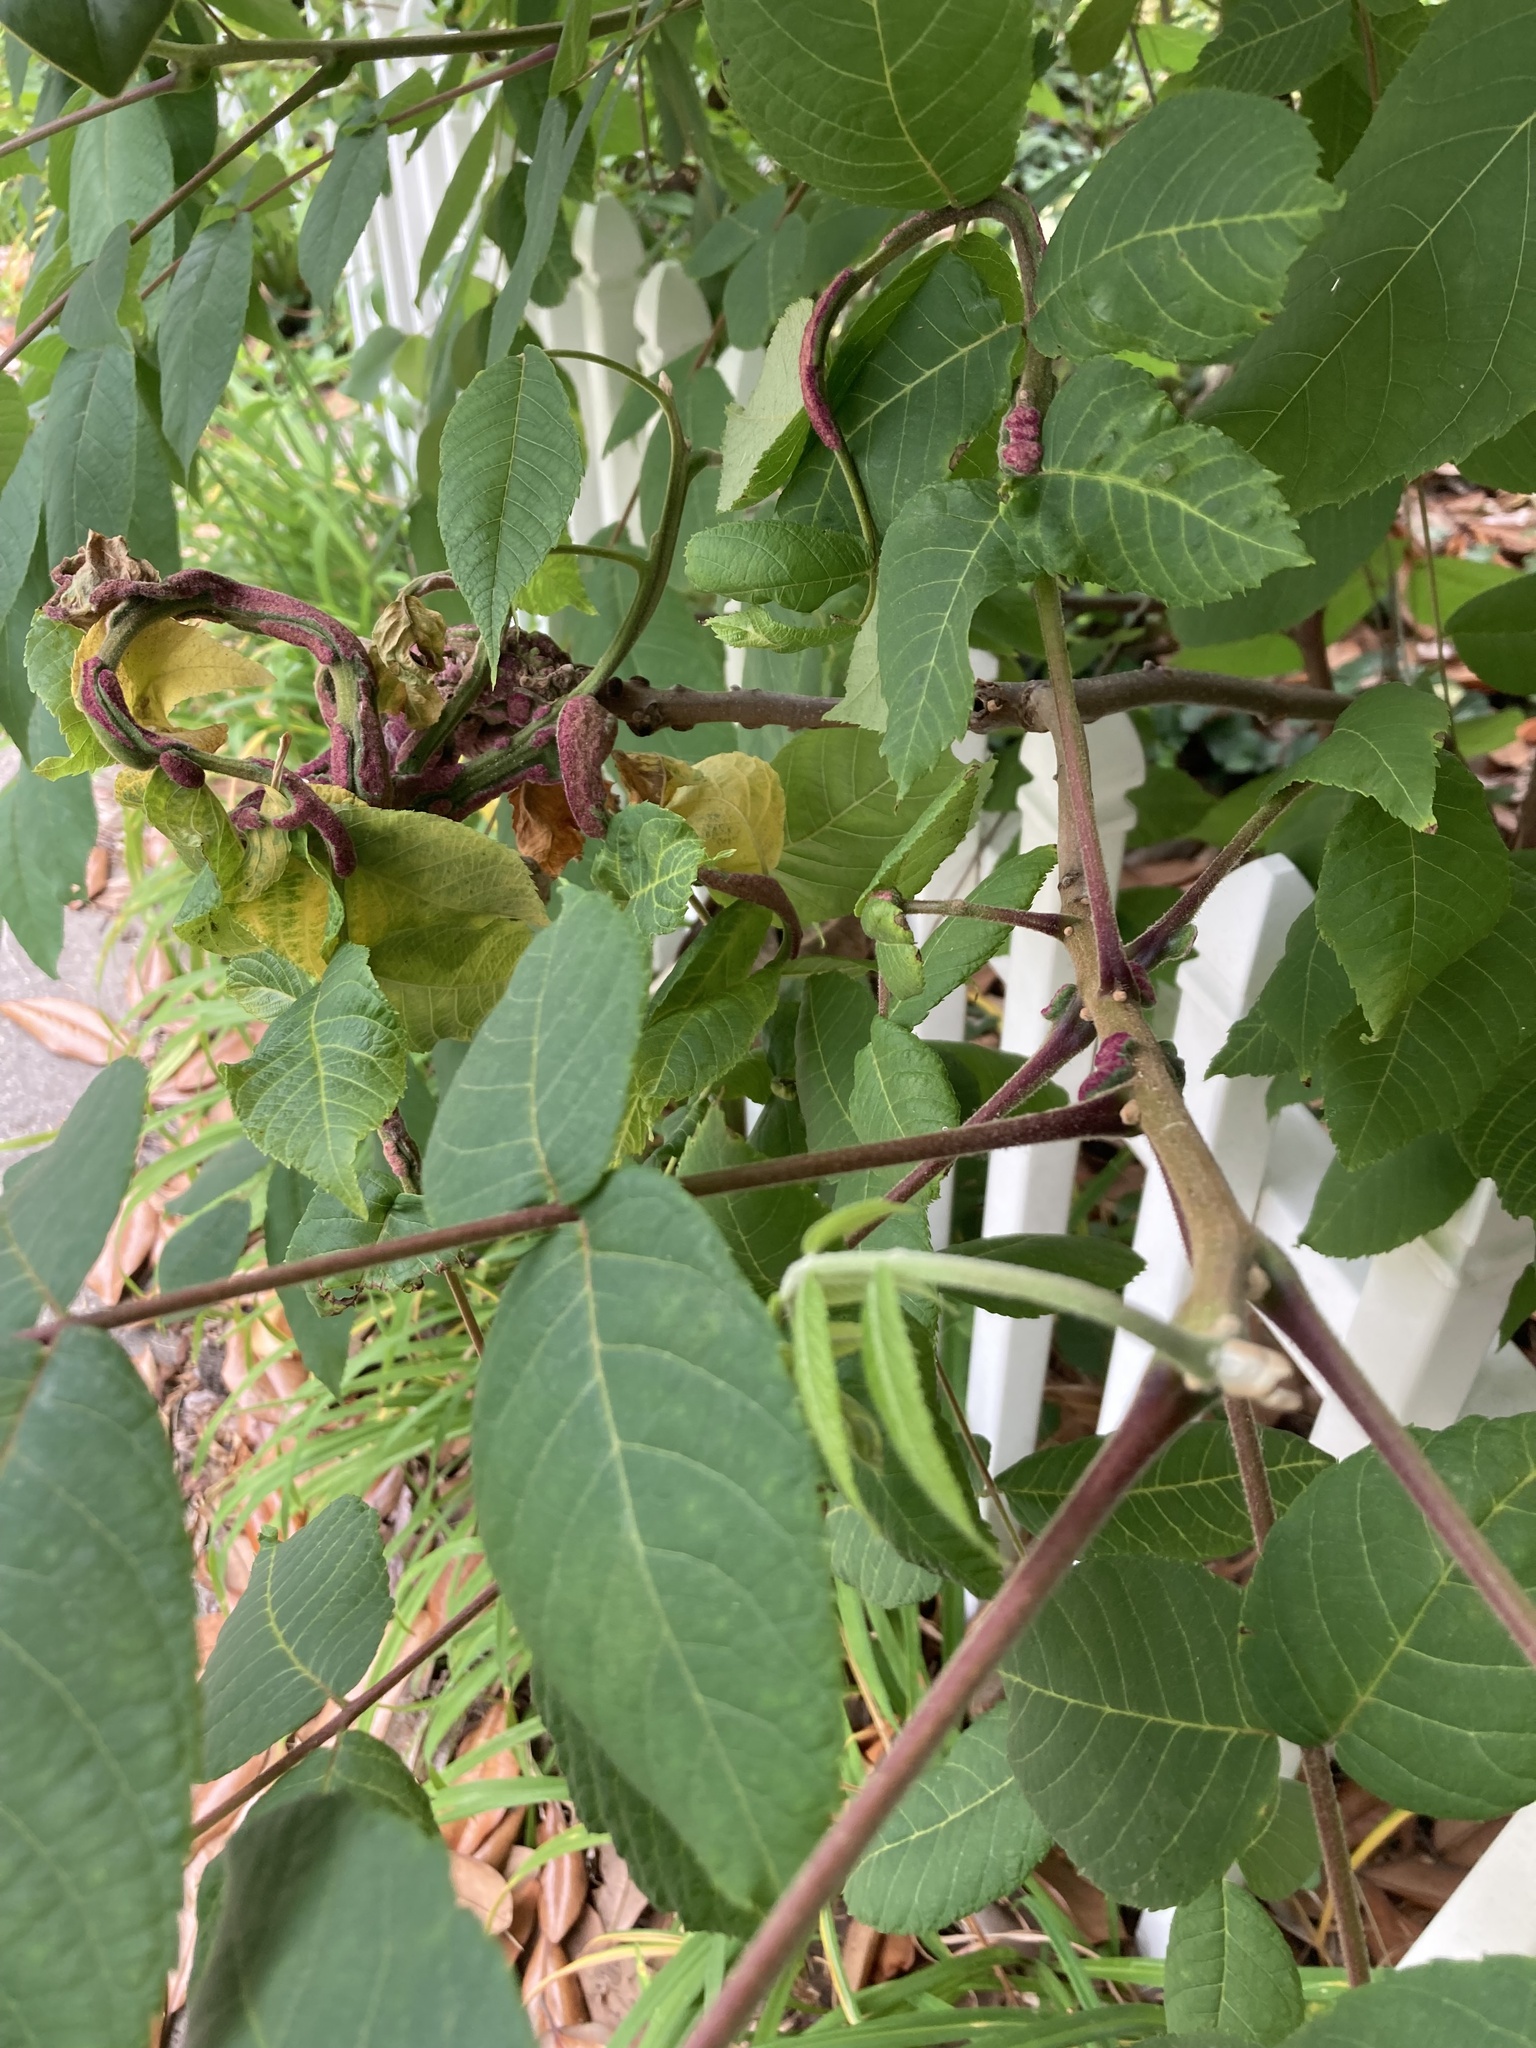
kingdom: Animalia
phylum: Arthropoda
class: Arachnida
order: Trombidiformes
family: Eriophyidae
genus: Aceria
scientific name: Aceria
